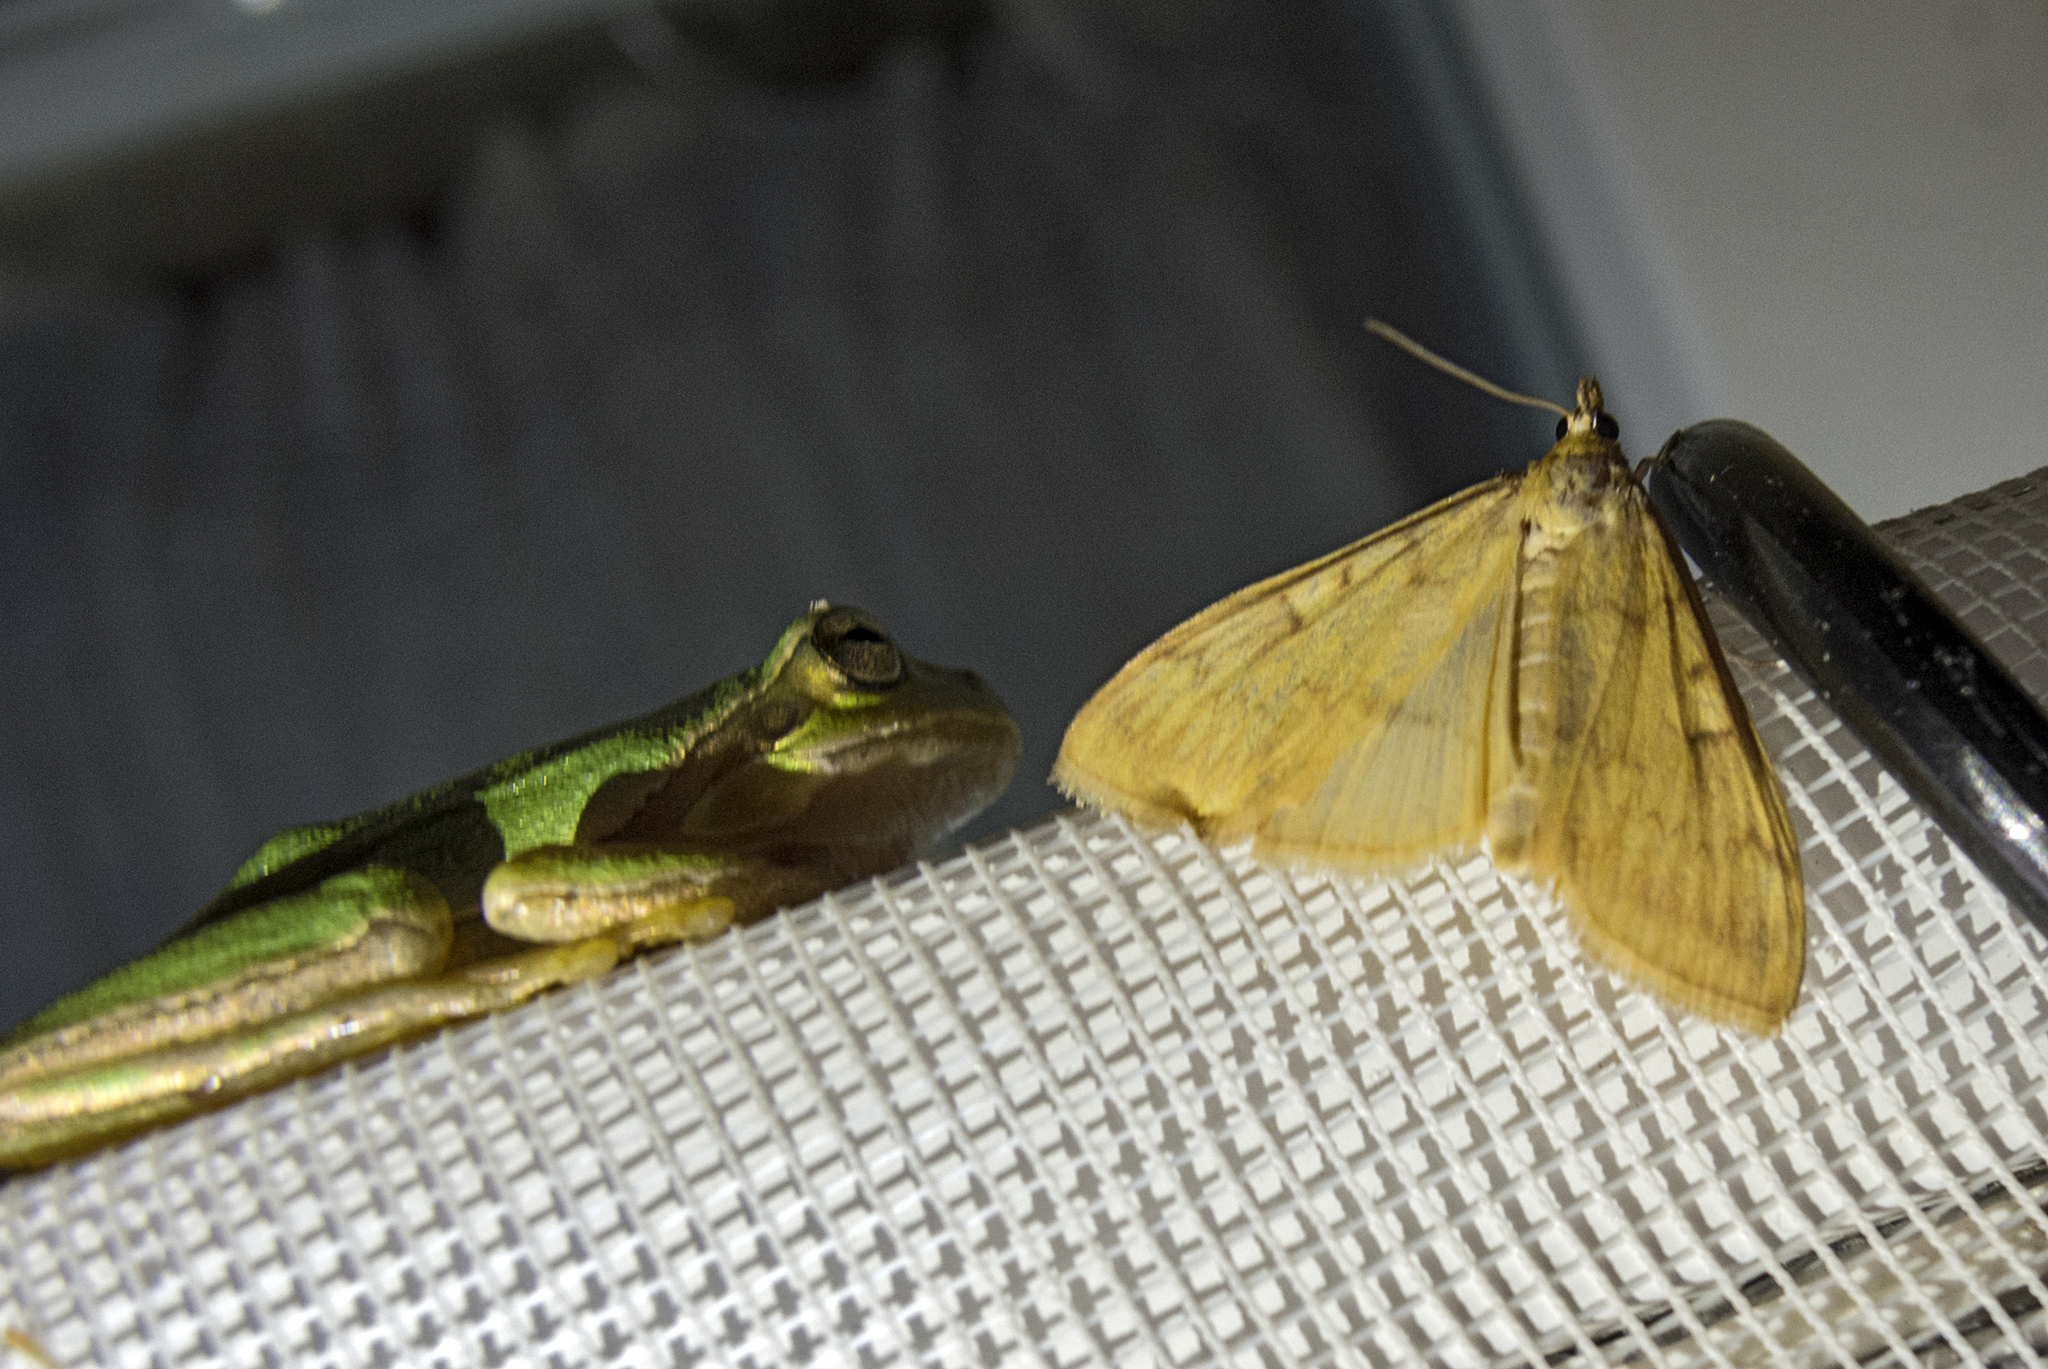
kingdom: Animalia
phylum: Arthropoda
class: Insecta
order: Lepidoptera
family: Crambidae
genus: Ostrinia
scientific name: Ostrinia nubilalis
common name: European corn borer
